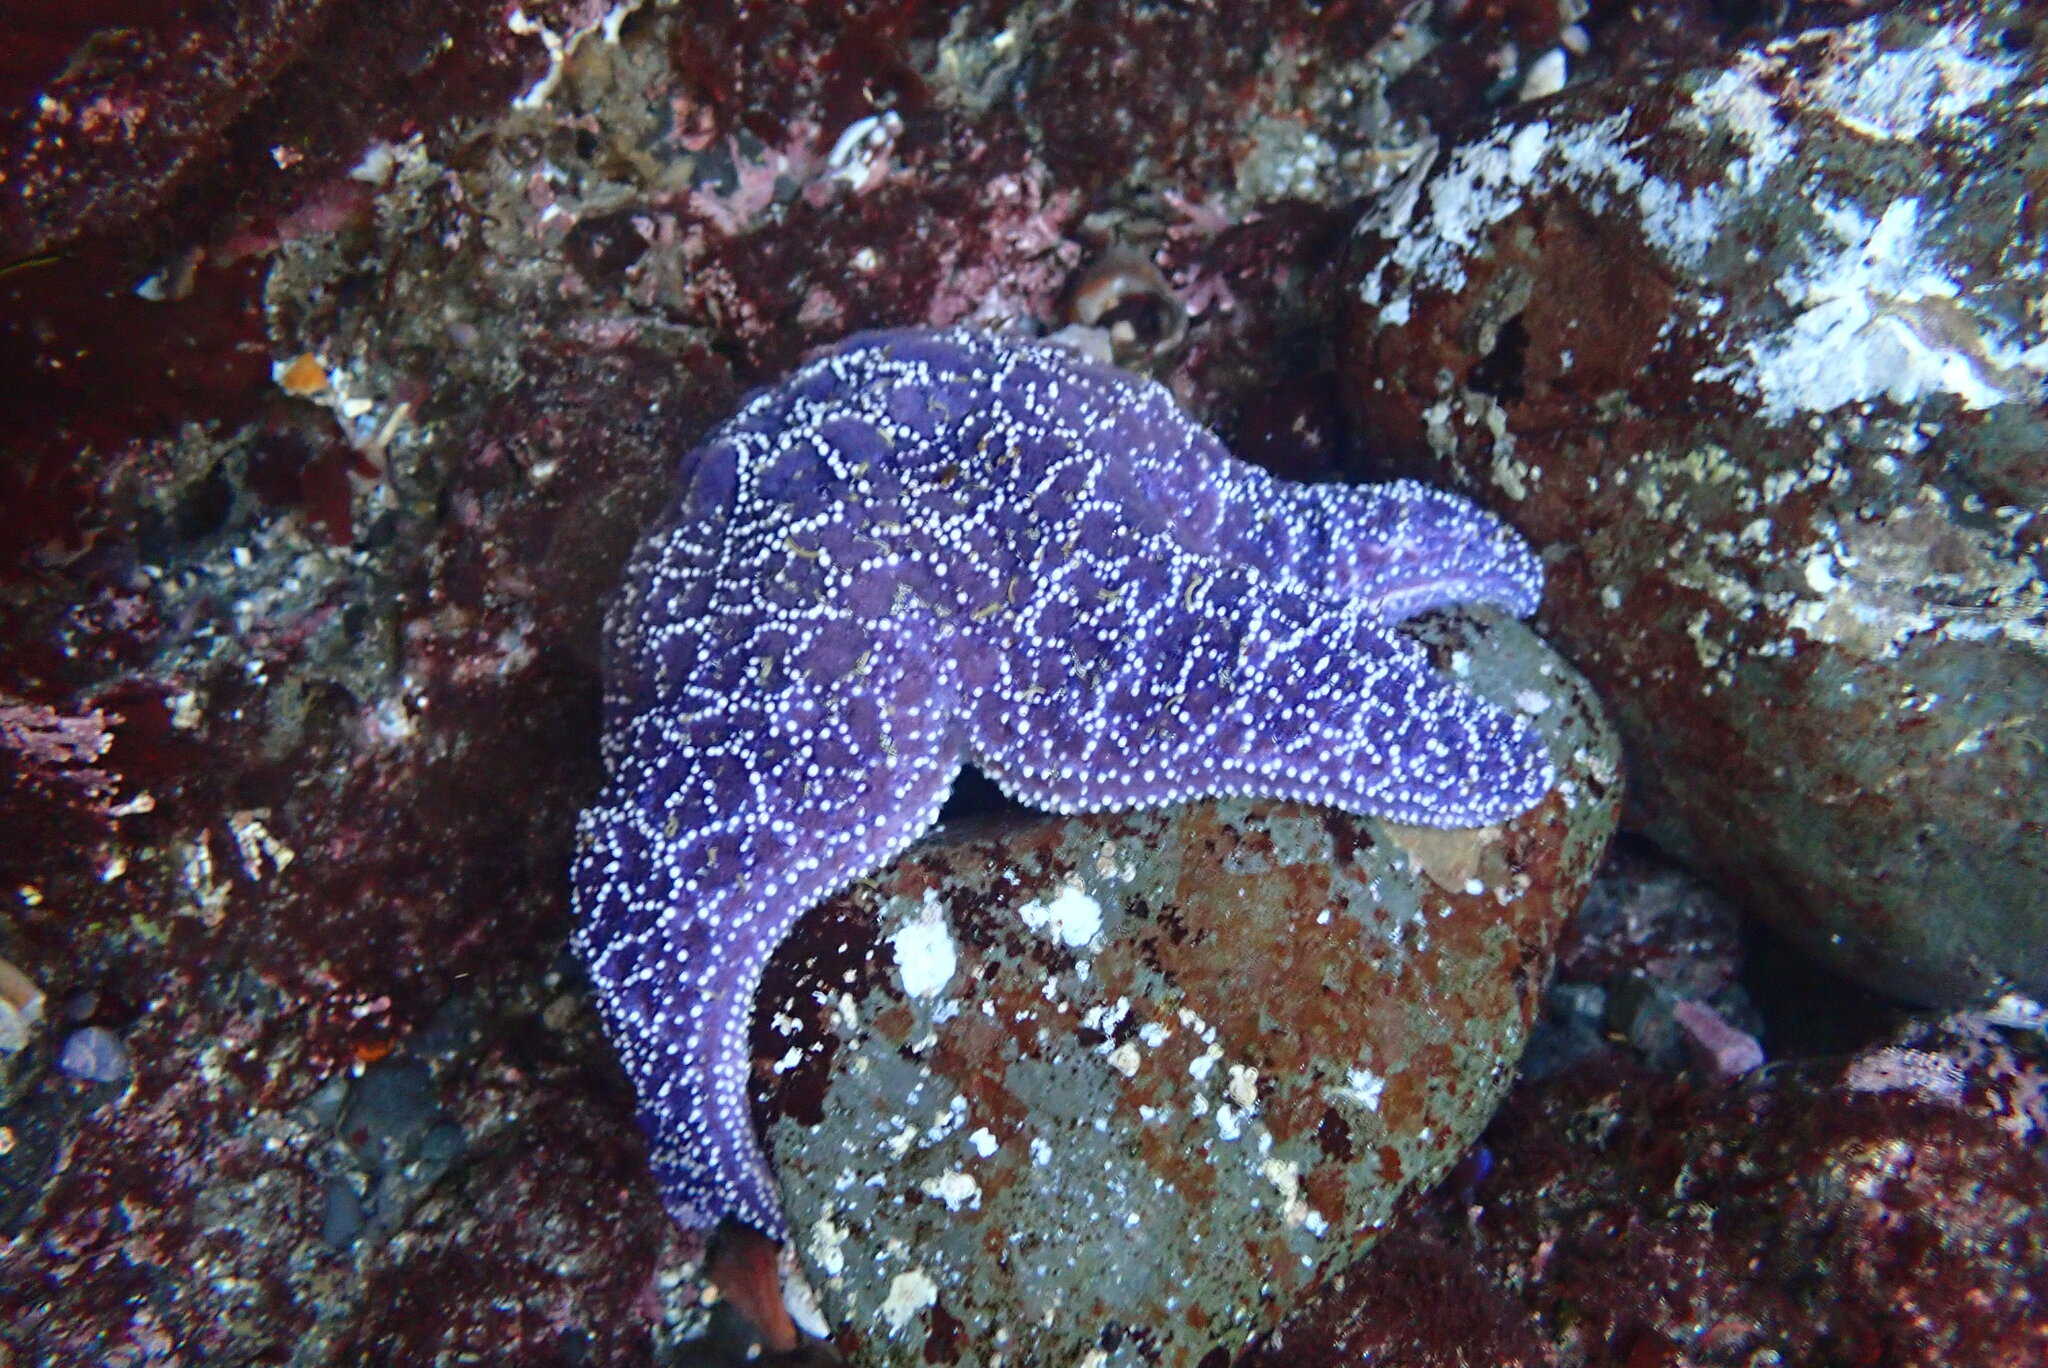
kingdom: Animalia
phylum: Echinodermata
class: Asteroidea
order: Forcipulatida
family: Asteriidae
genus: Pisaster
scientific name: Pisaster ochraceus
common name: Ochre stars
